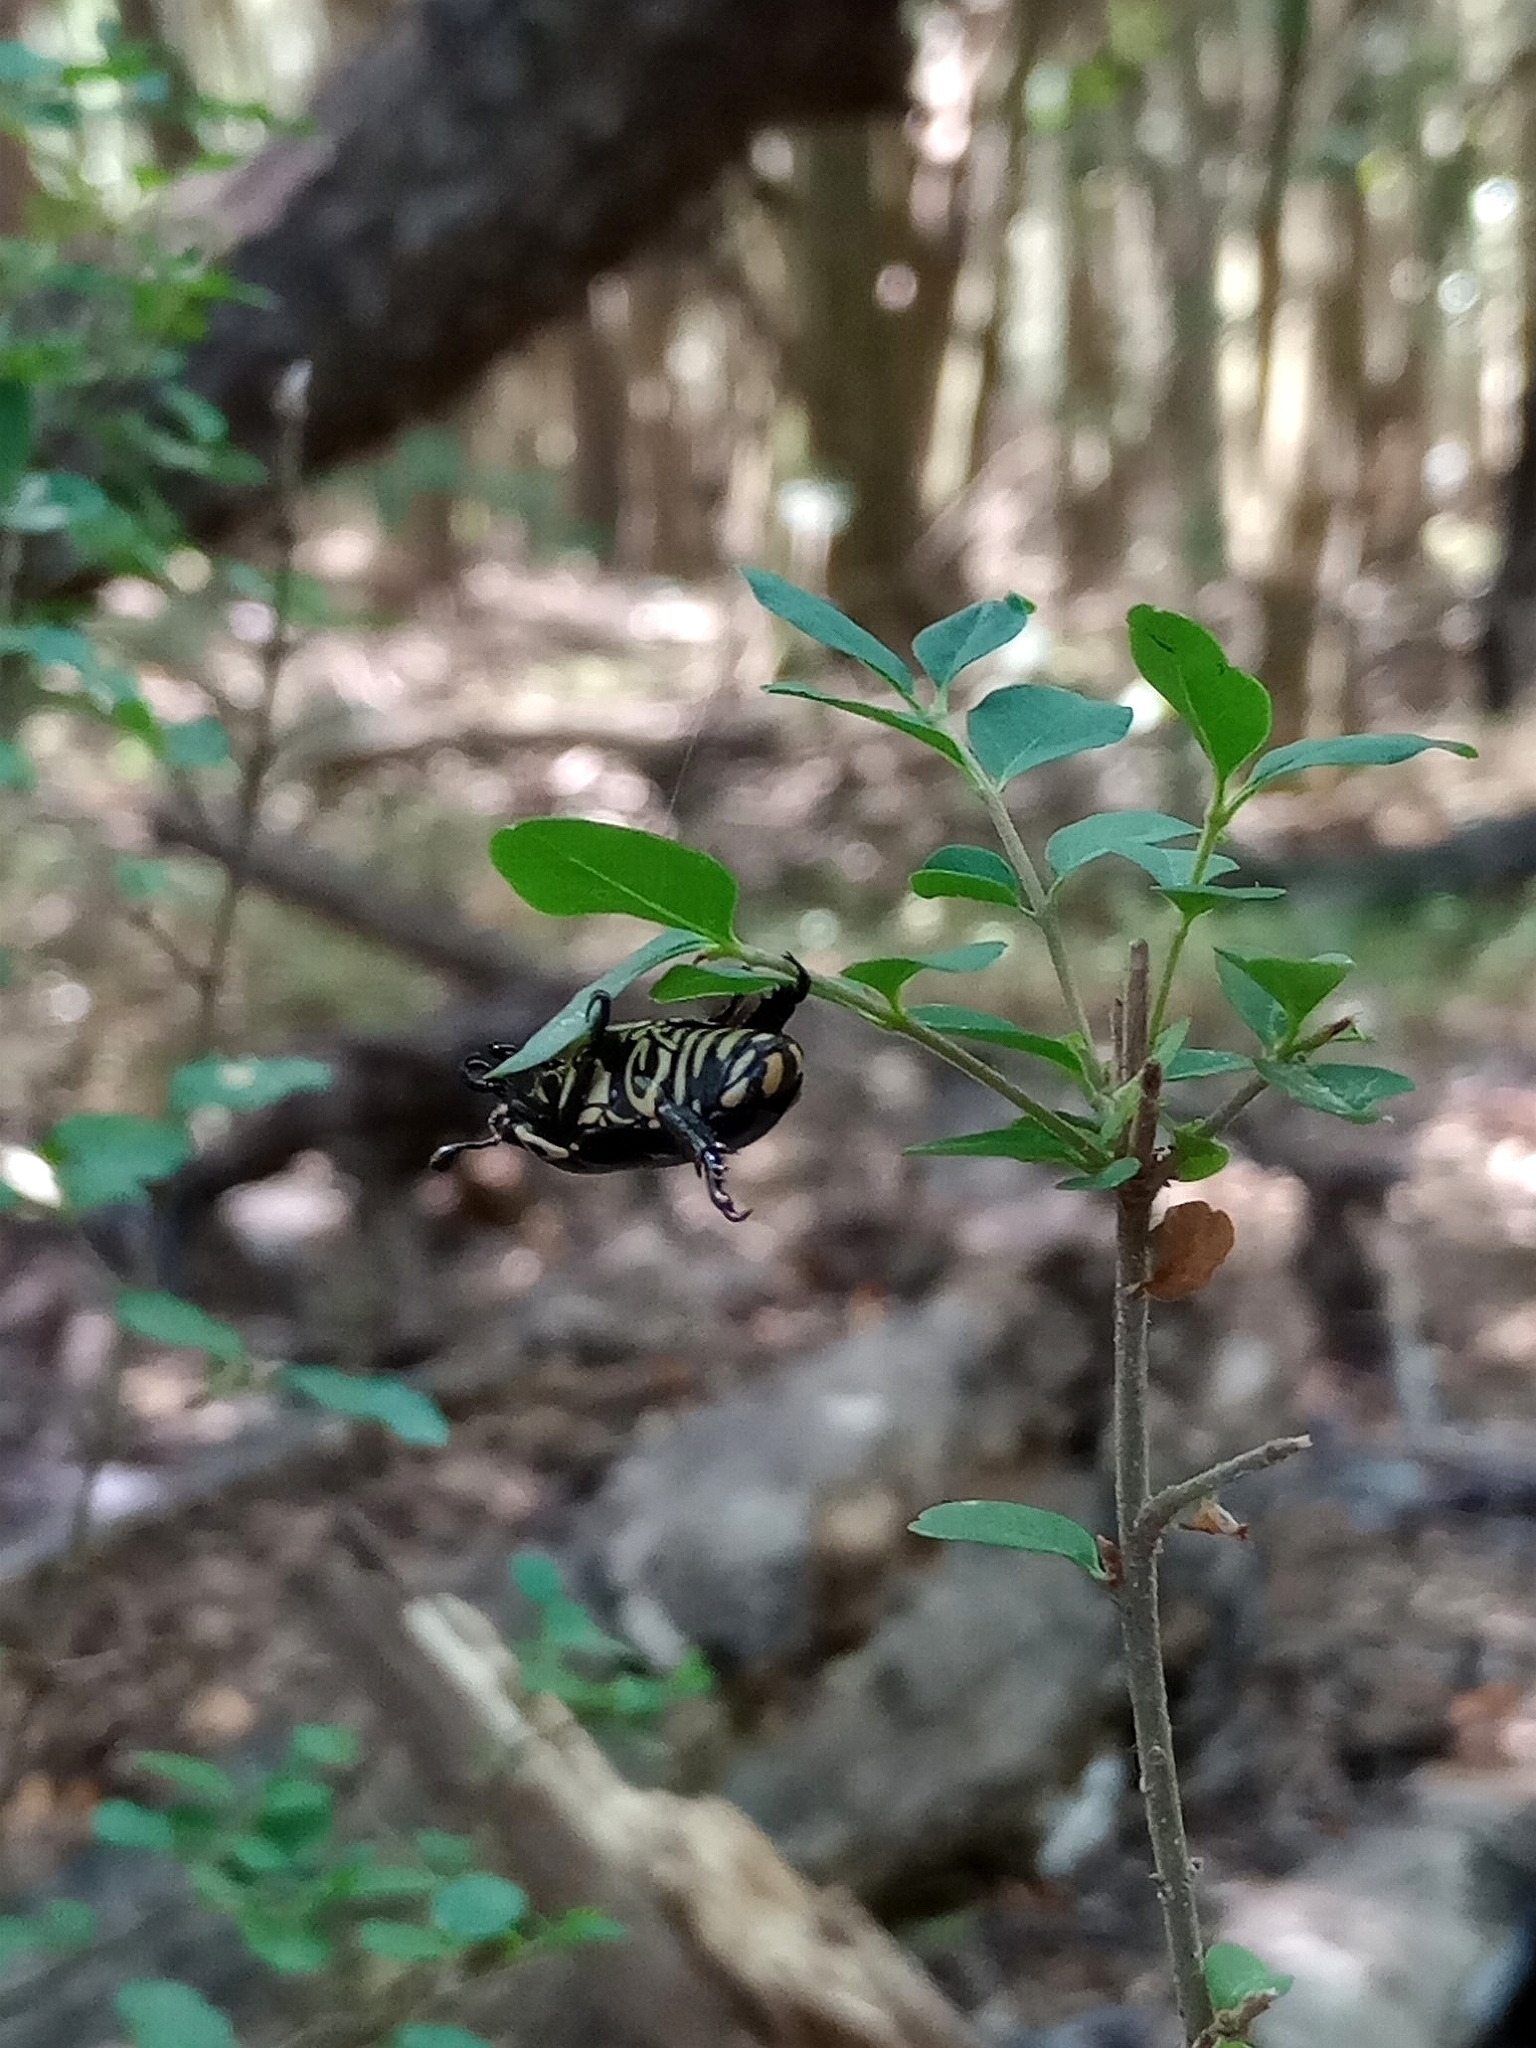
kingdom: Animalia
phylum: Arthropoda
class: Insecta
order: Coleoptera
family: Scarabaeidae
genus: Rutela
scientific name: Rutela lineola
